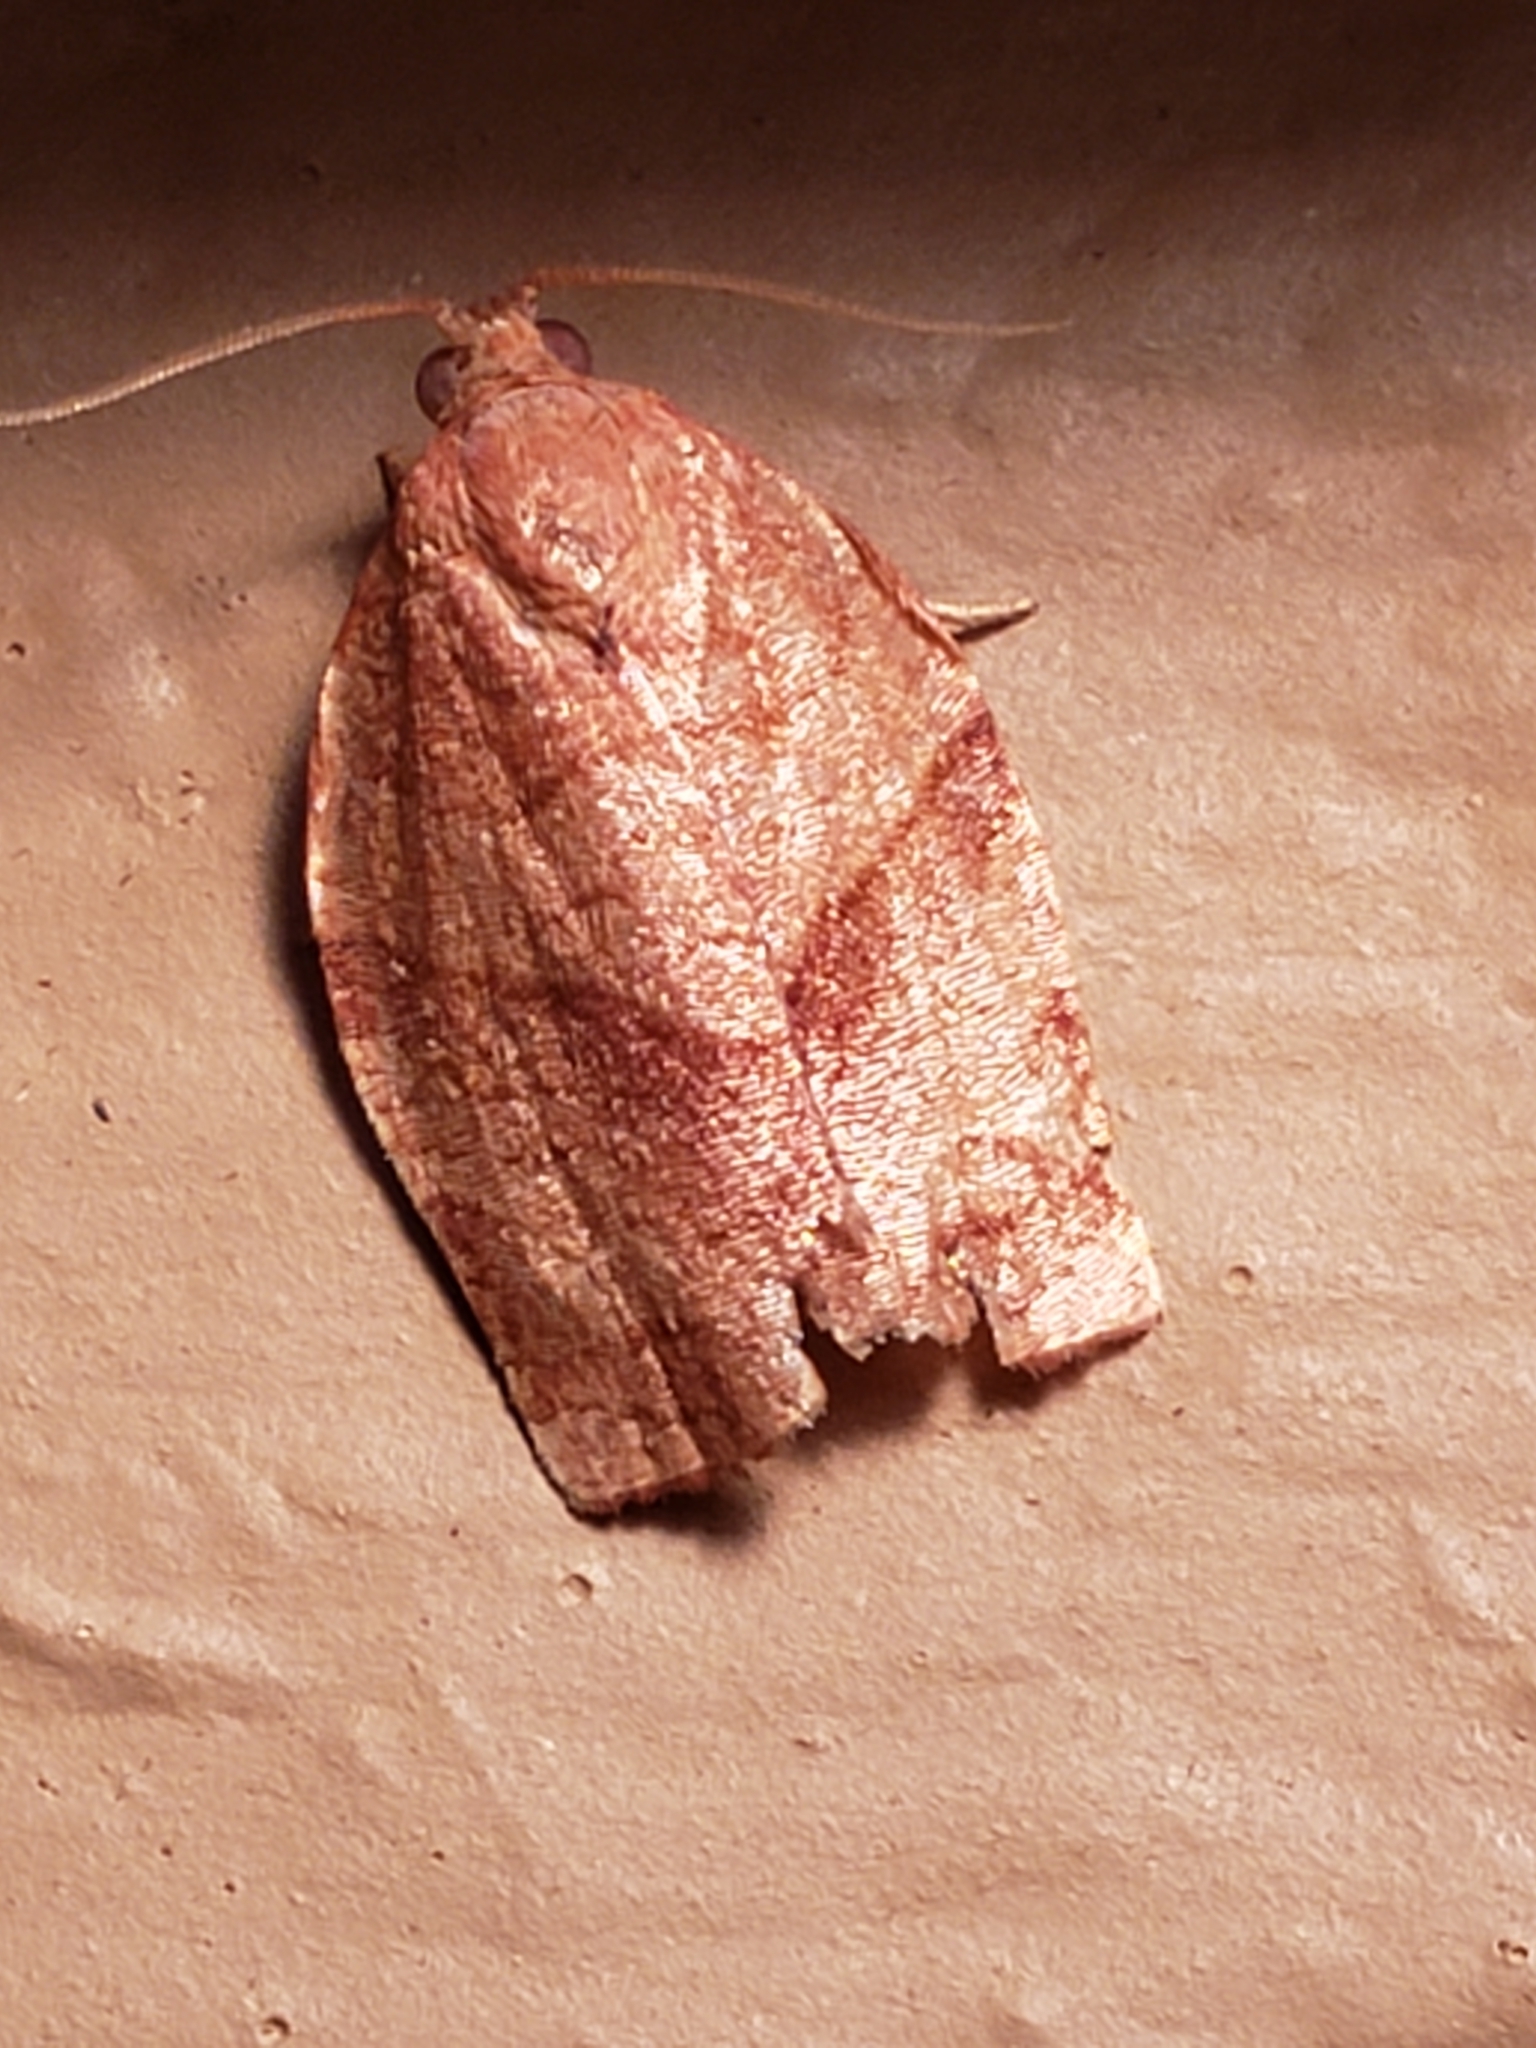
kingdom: Animalia
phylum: Arthropoda
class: Insecta
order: Lepidoptera
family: Tortricidae
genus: Choristoneura
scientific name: Choristoneura rosaceana
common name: Oblique-banded leafroller moth
